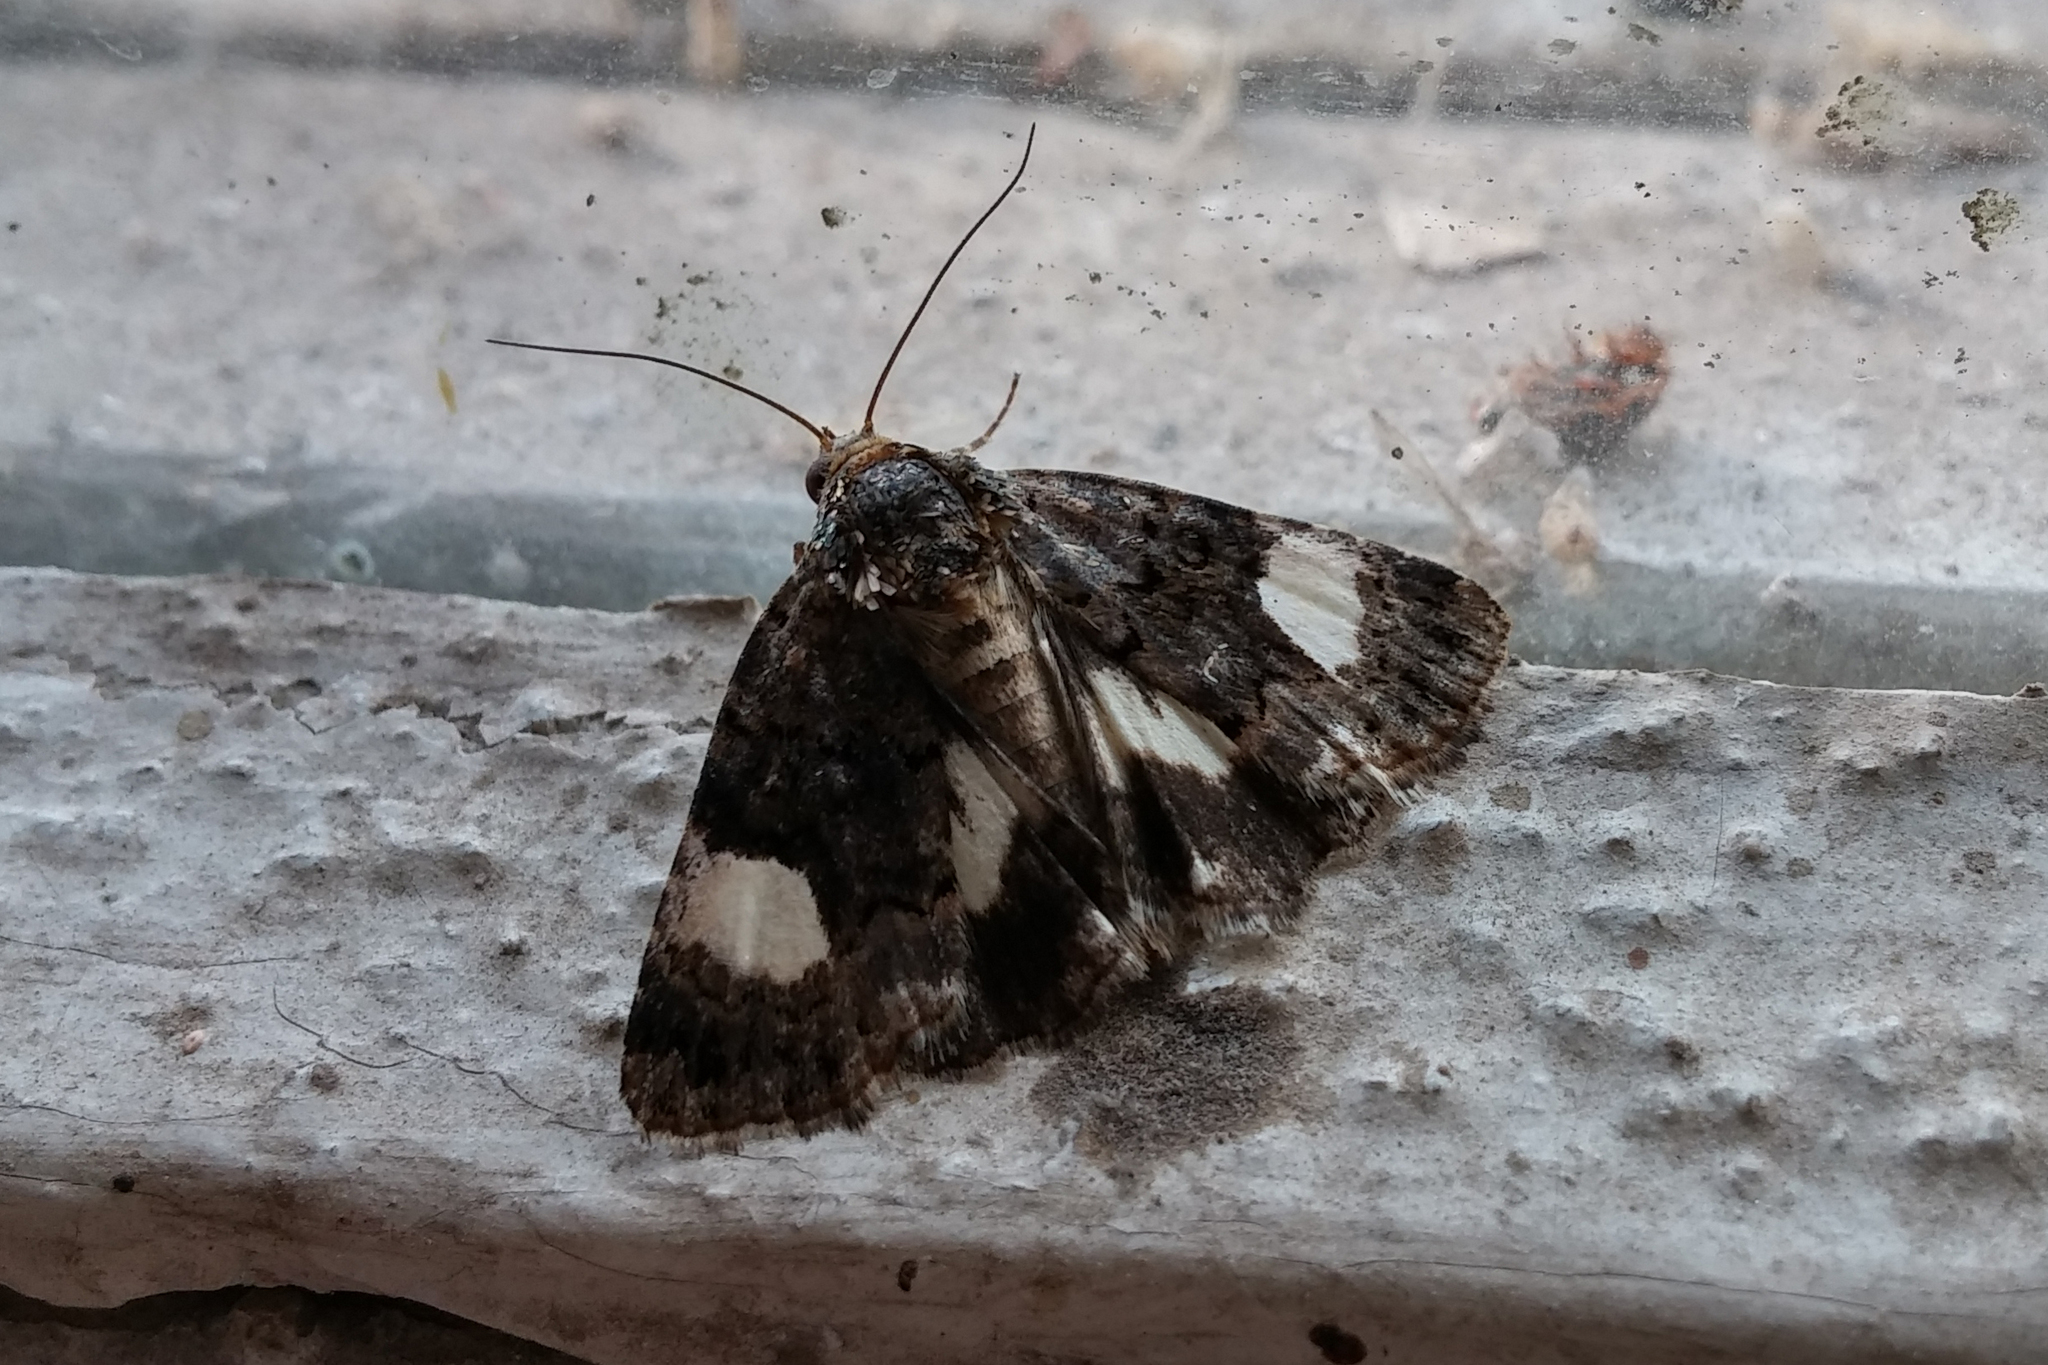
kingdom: Animalia
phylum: Arthropoda
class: Insecta
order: Lepidoptera
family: Erebidae
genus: Tyta
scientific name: Tyta luctuosa
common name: Four-spotted
